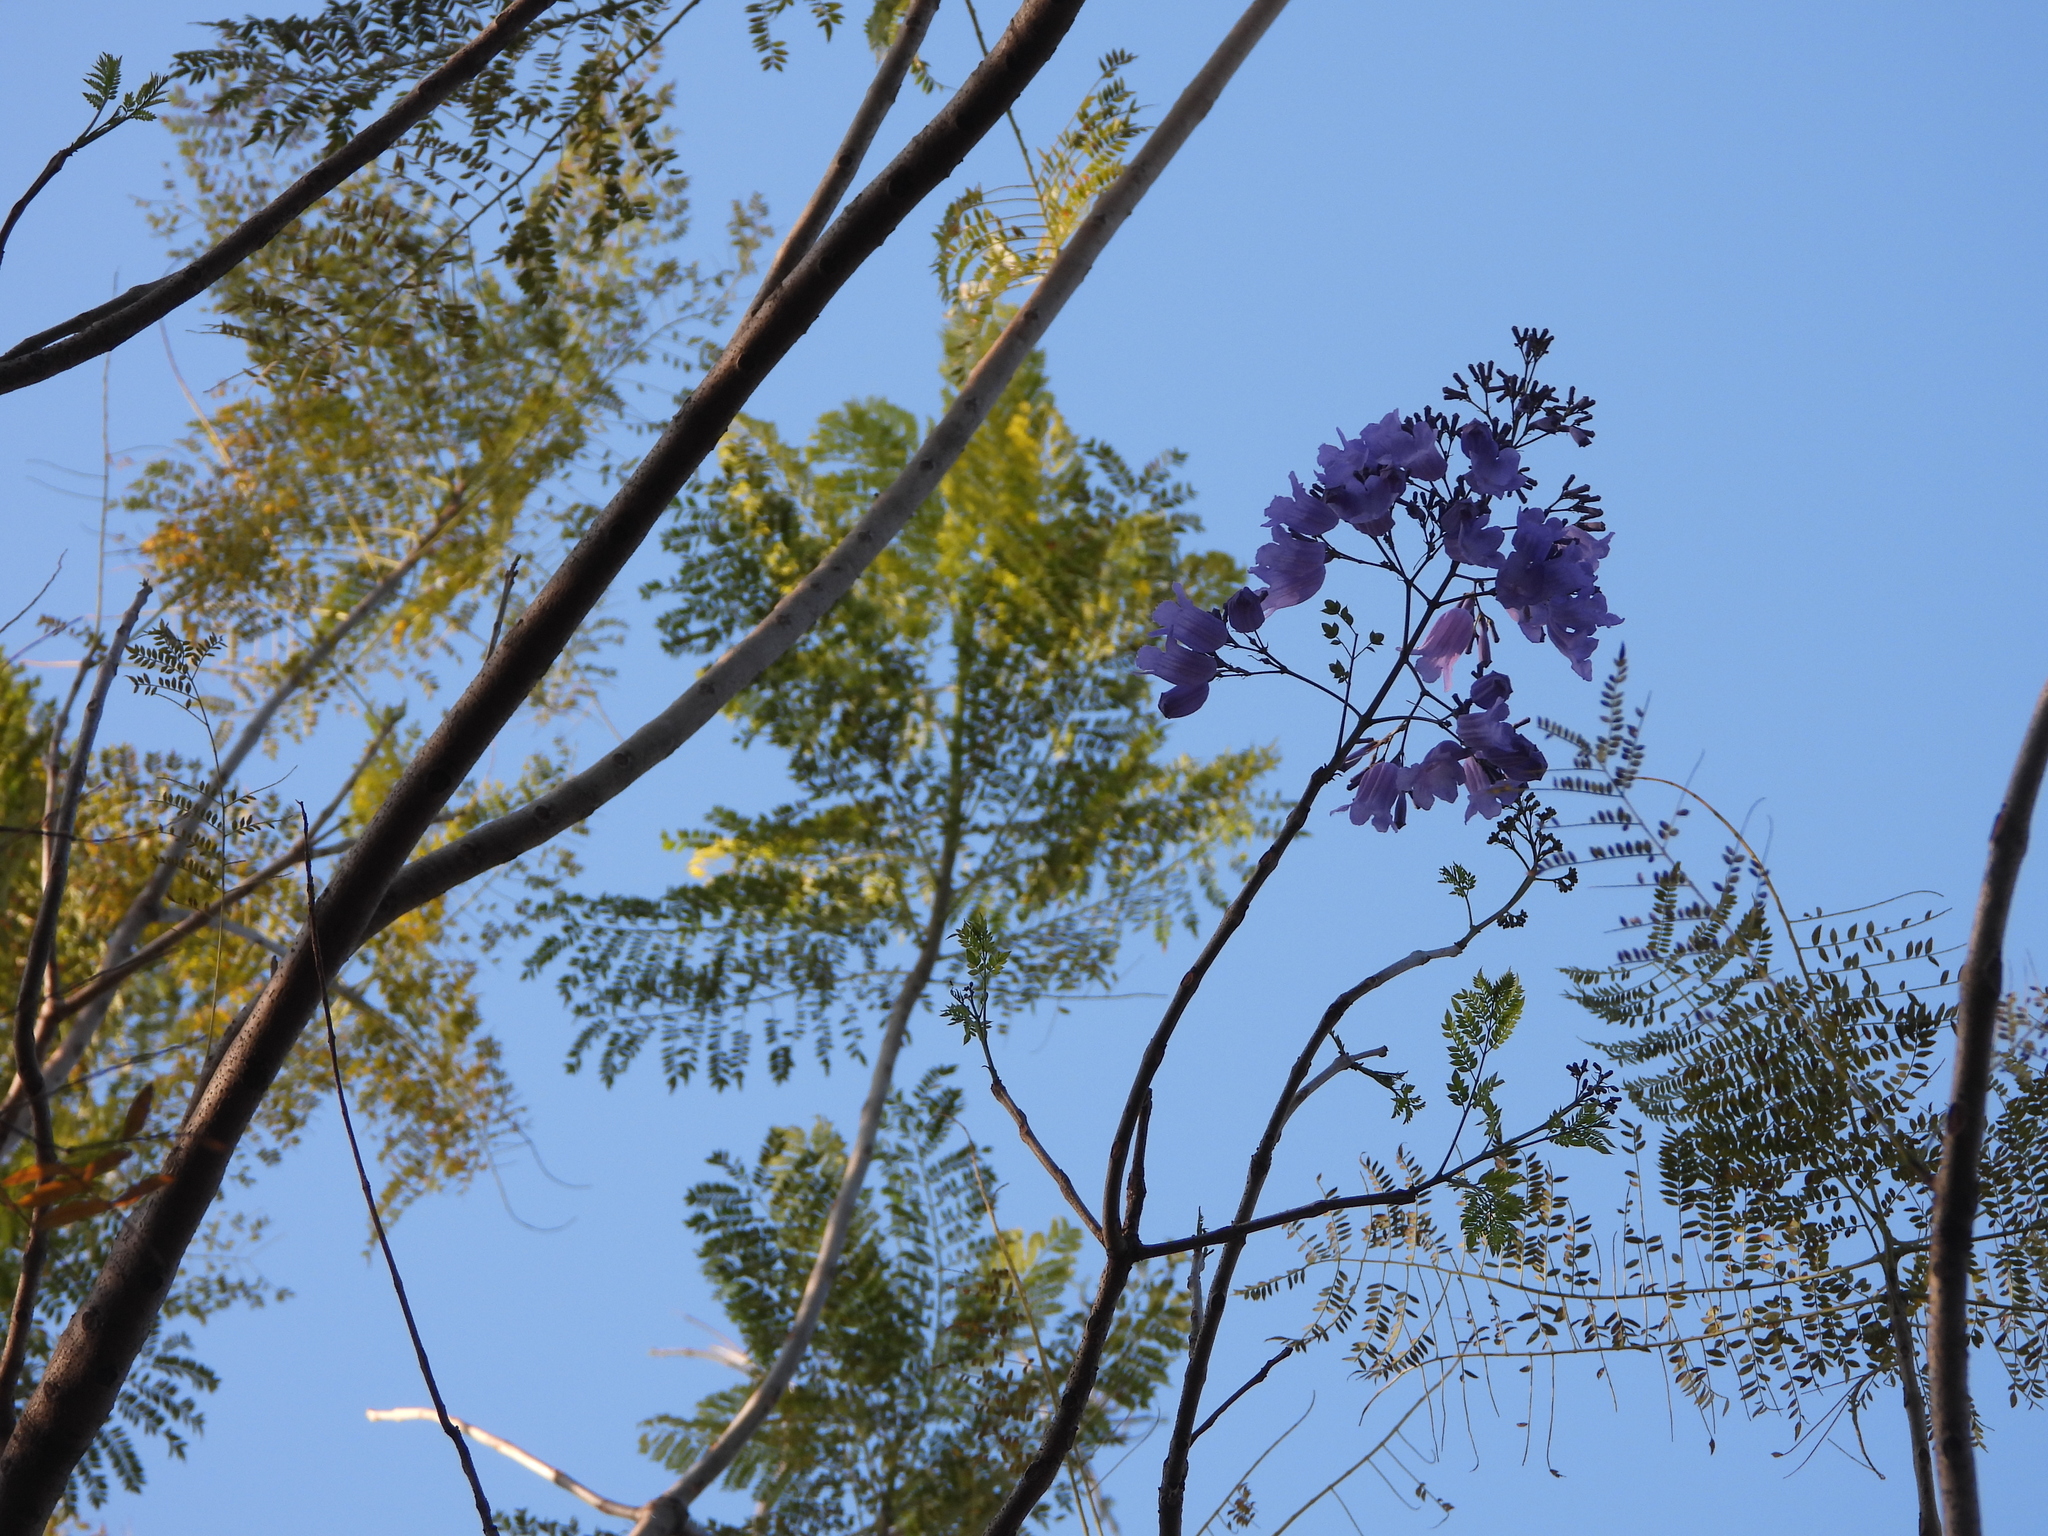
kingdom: Plantae
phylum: Tracheophyta
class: Magnoliopsida
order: Lamiales
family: Bignoniaceae
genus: Jacaranda
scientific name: Jacaranda mimosifolia
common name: Black poui
